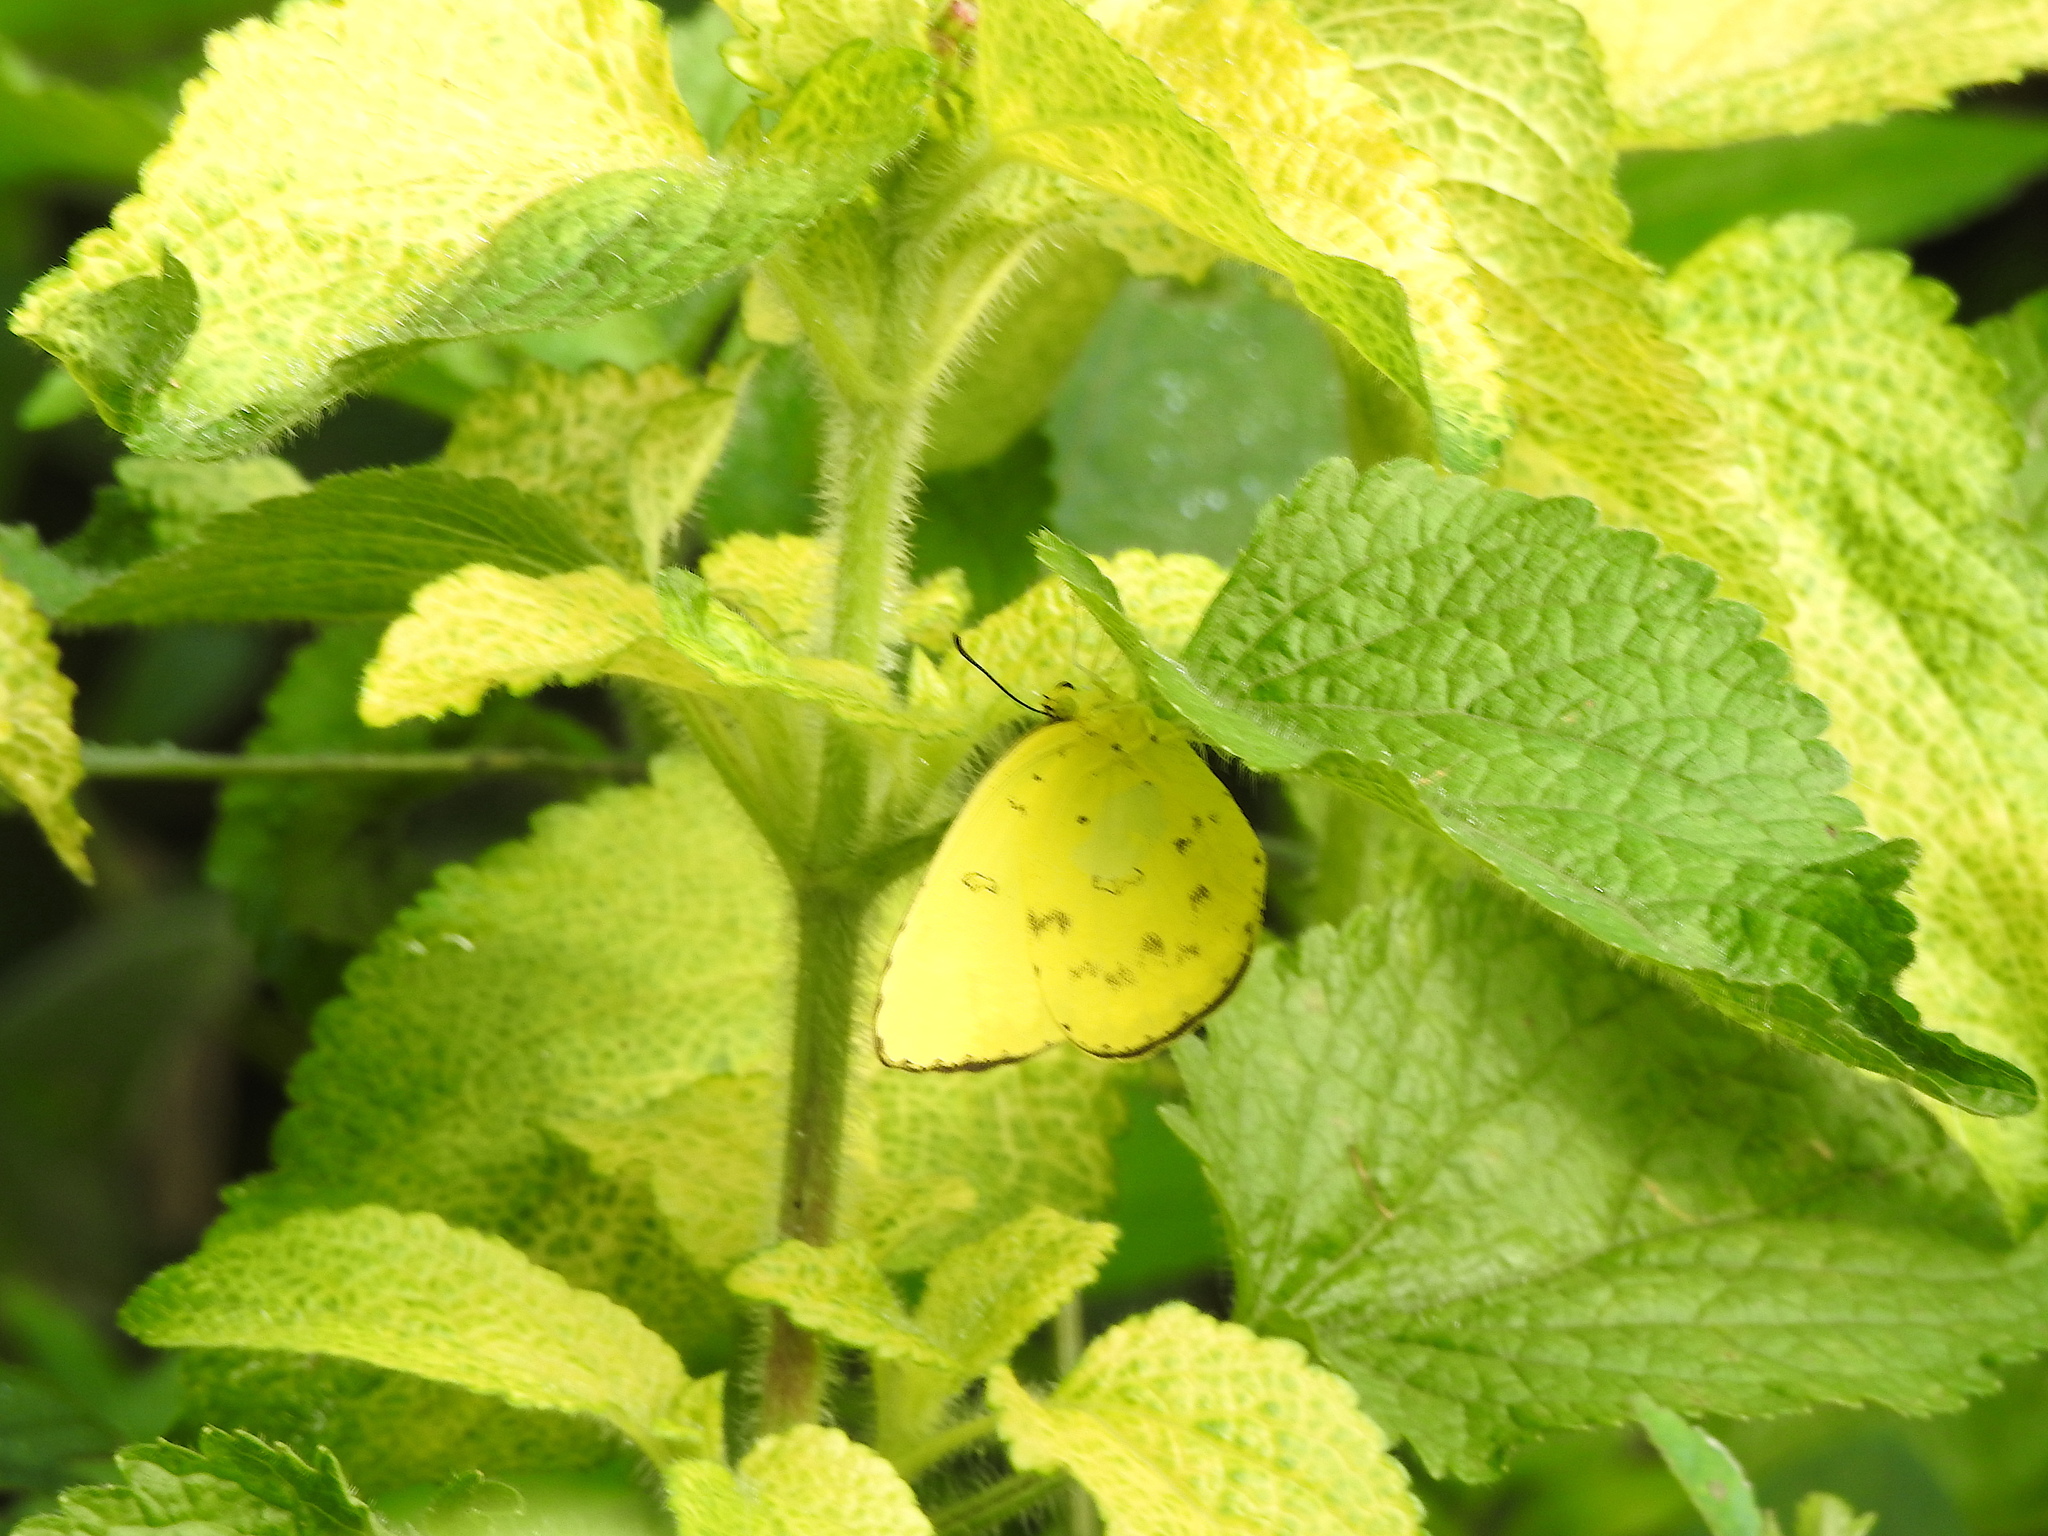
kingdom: Animalia
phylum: Arthropoda
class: Insecta
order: Lepidoptera
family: Pieridae
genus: Eurema
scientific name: Eurema blanda
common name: Three-spot grass yellow
